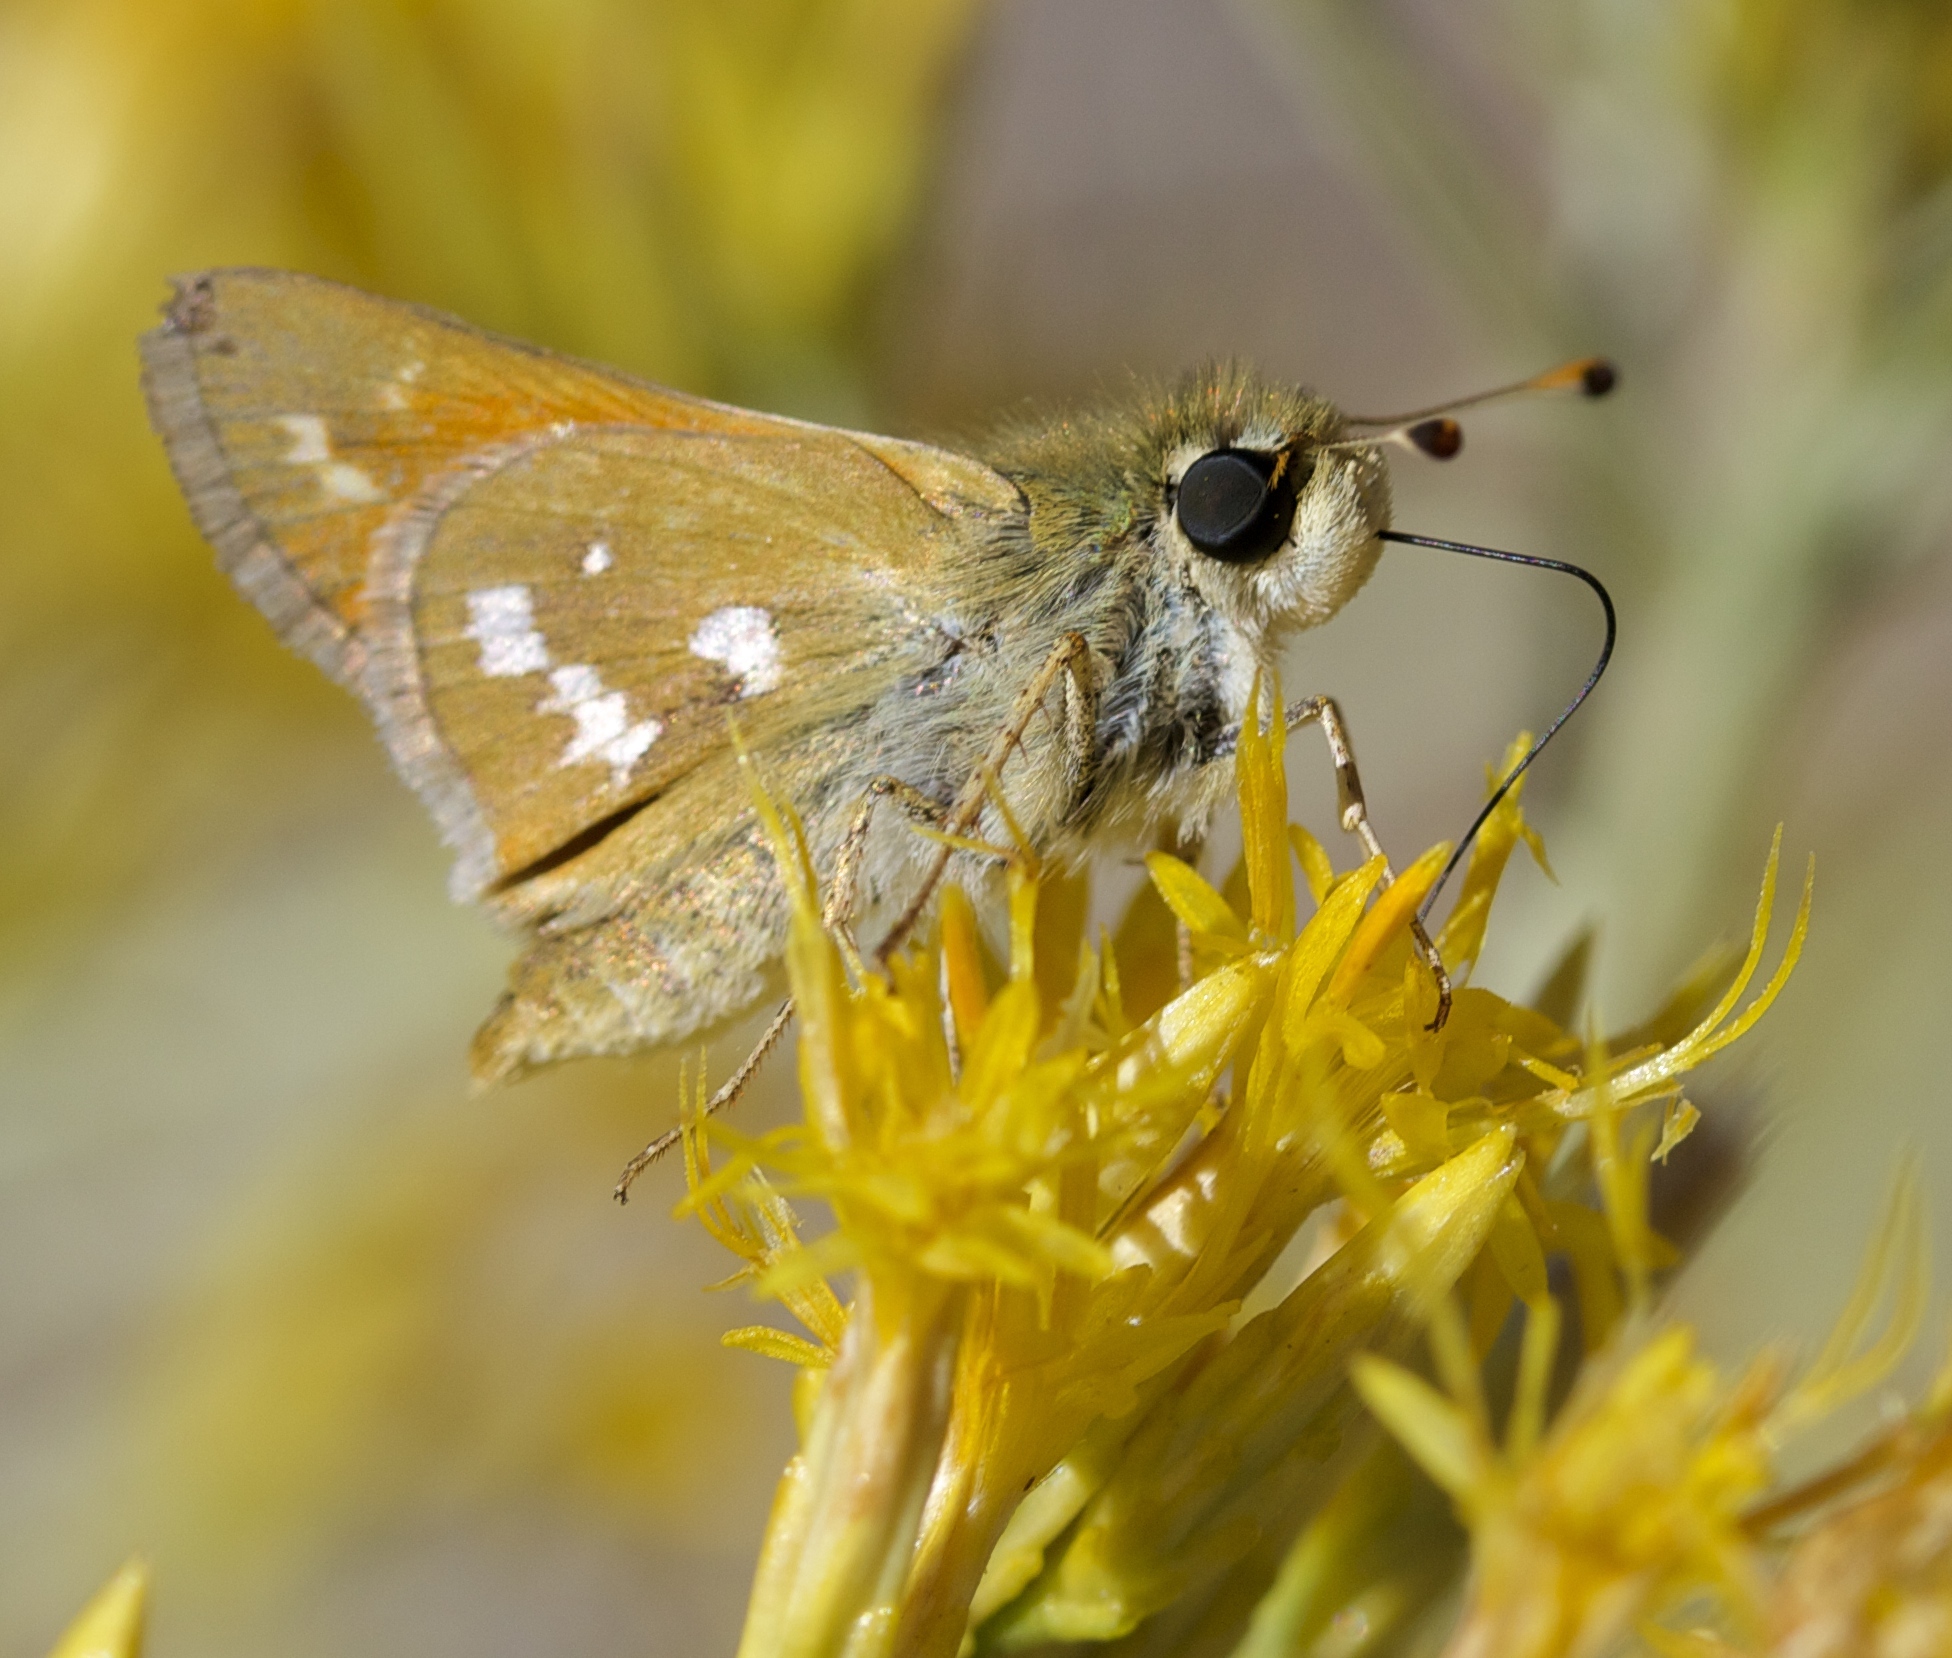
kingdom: Animalia
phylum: Arthropoda
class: Insecta
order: Lepidoptera
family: Hesperiidae
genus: Hesperia
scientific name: Hesperia columbia
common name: Columbian skipper
